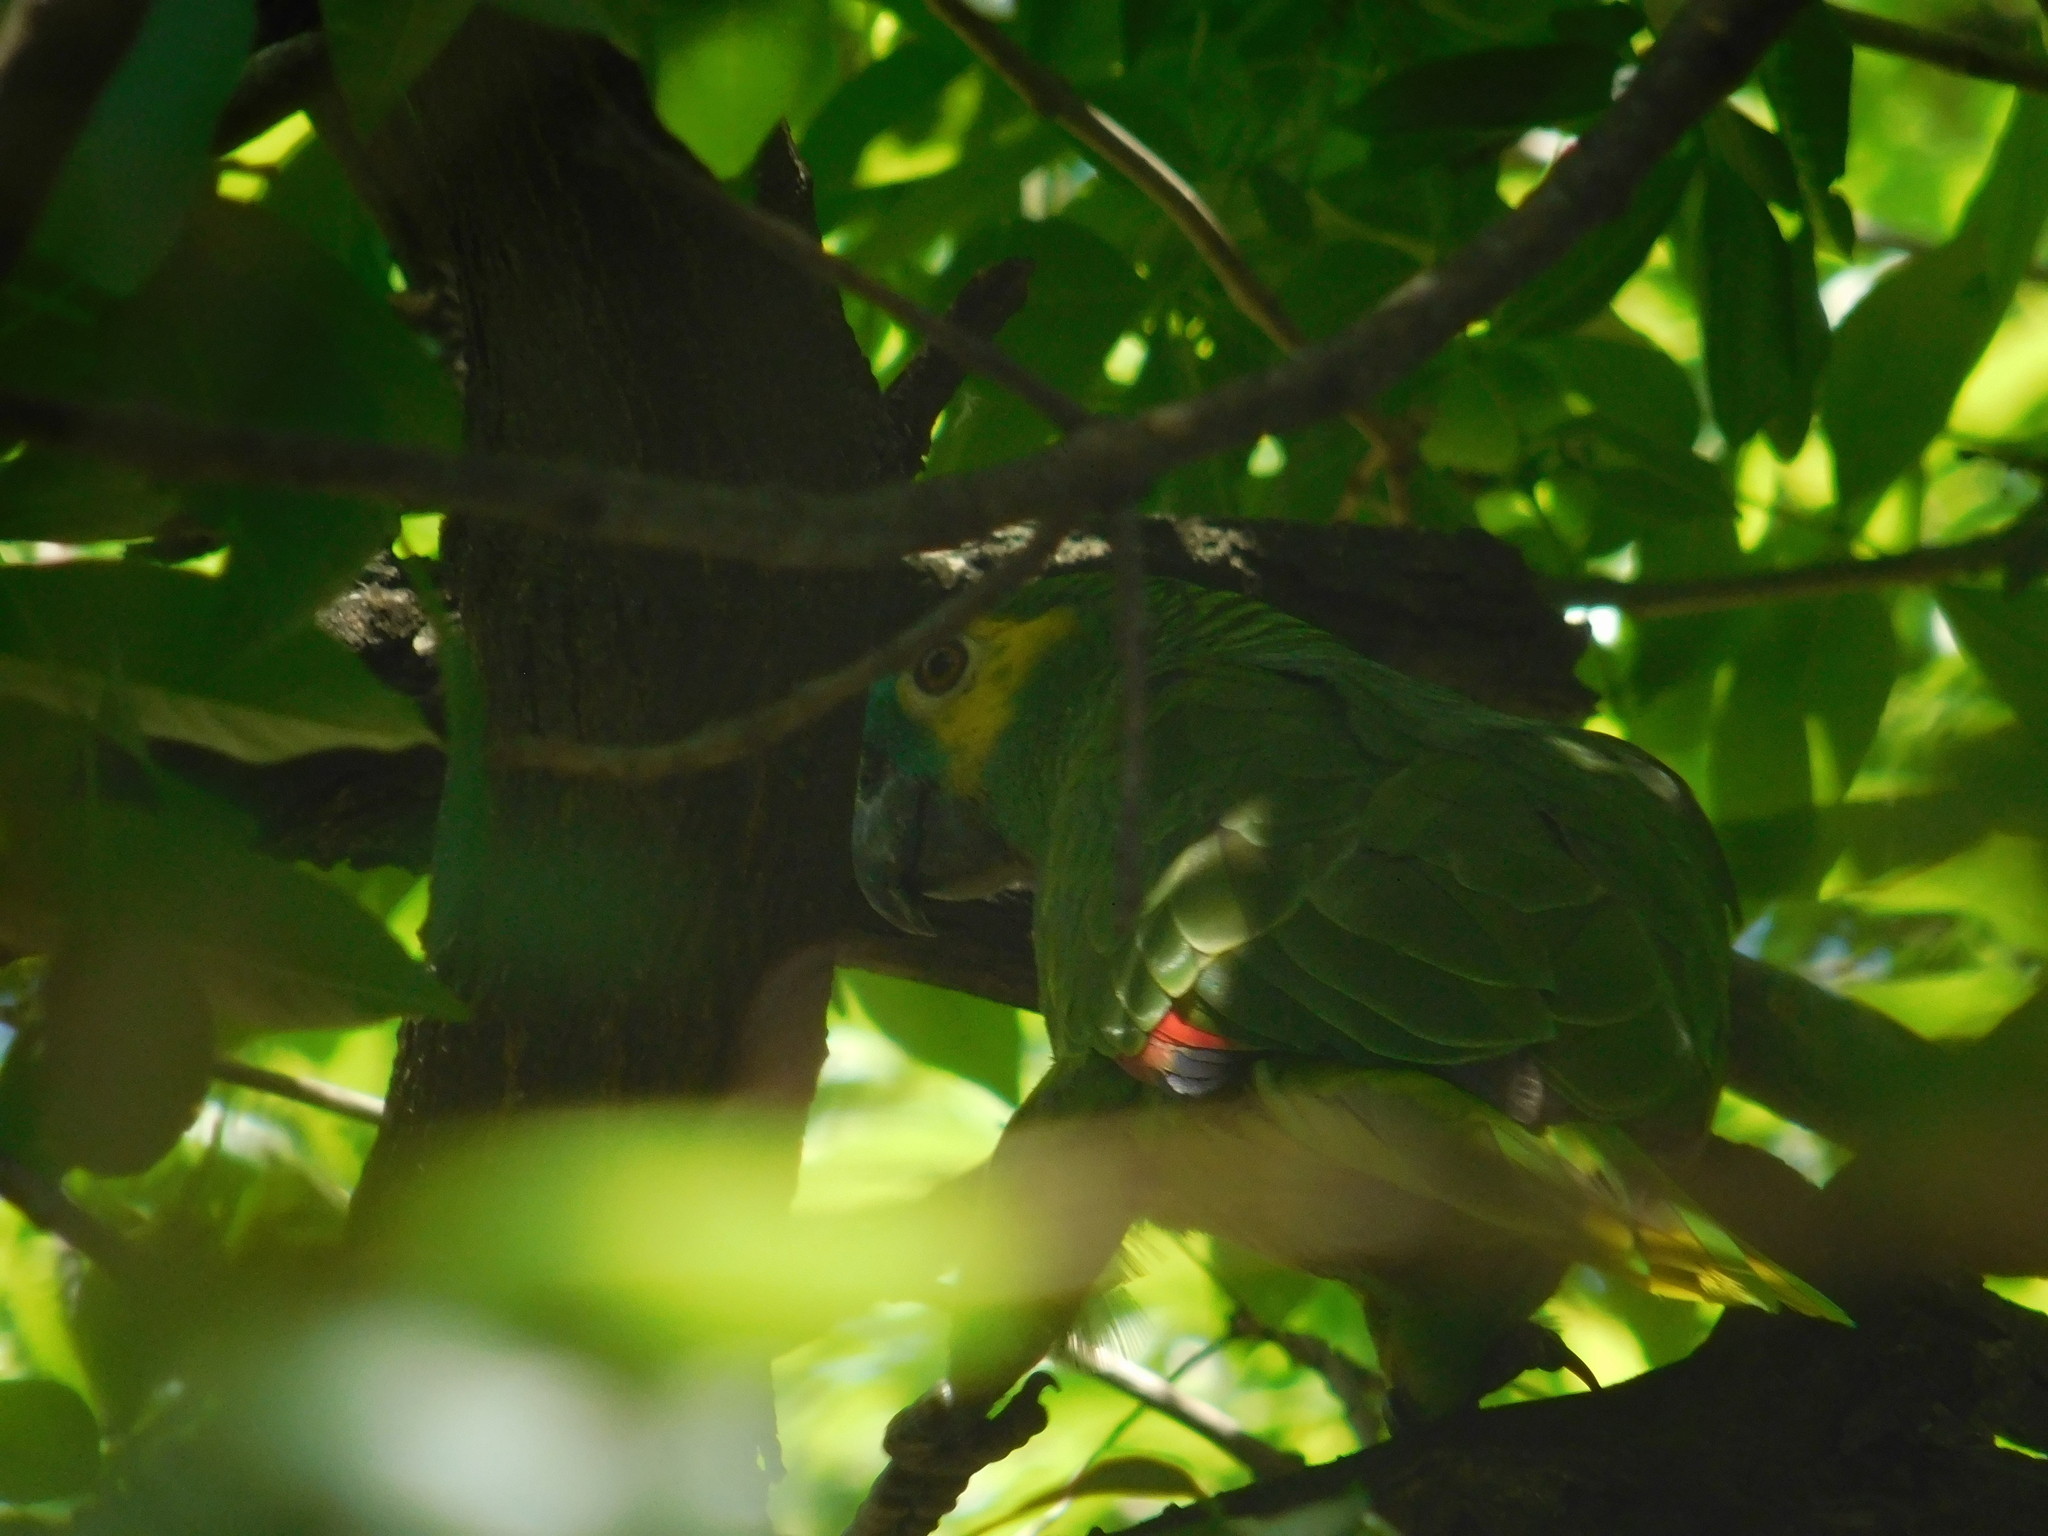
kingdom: Animalia
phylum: Chordata
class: Aves
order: Psittaciformes
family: Psittacidae
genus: Amazona
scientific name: Amazona aestiva
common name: Turquoise-fronted amazon
